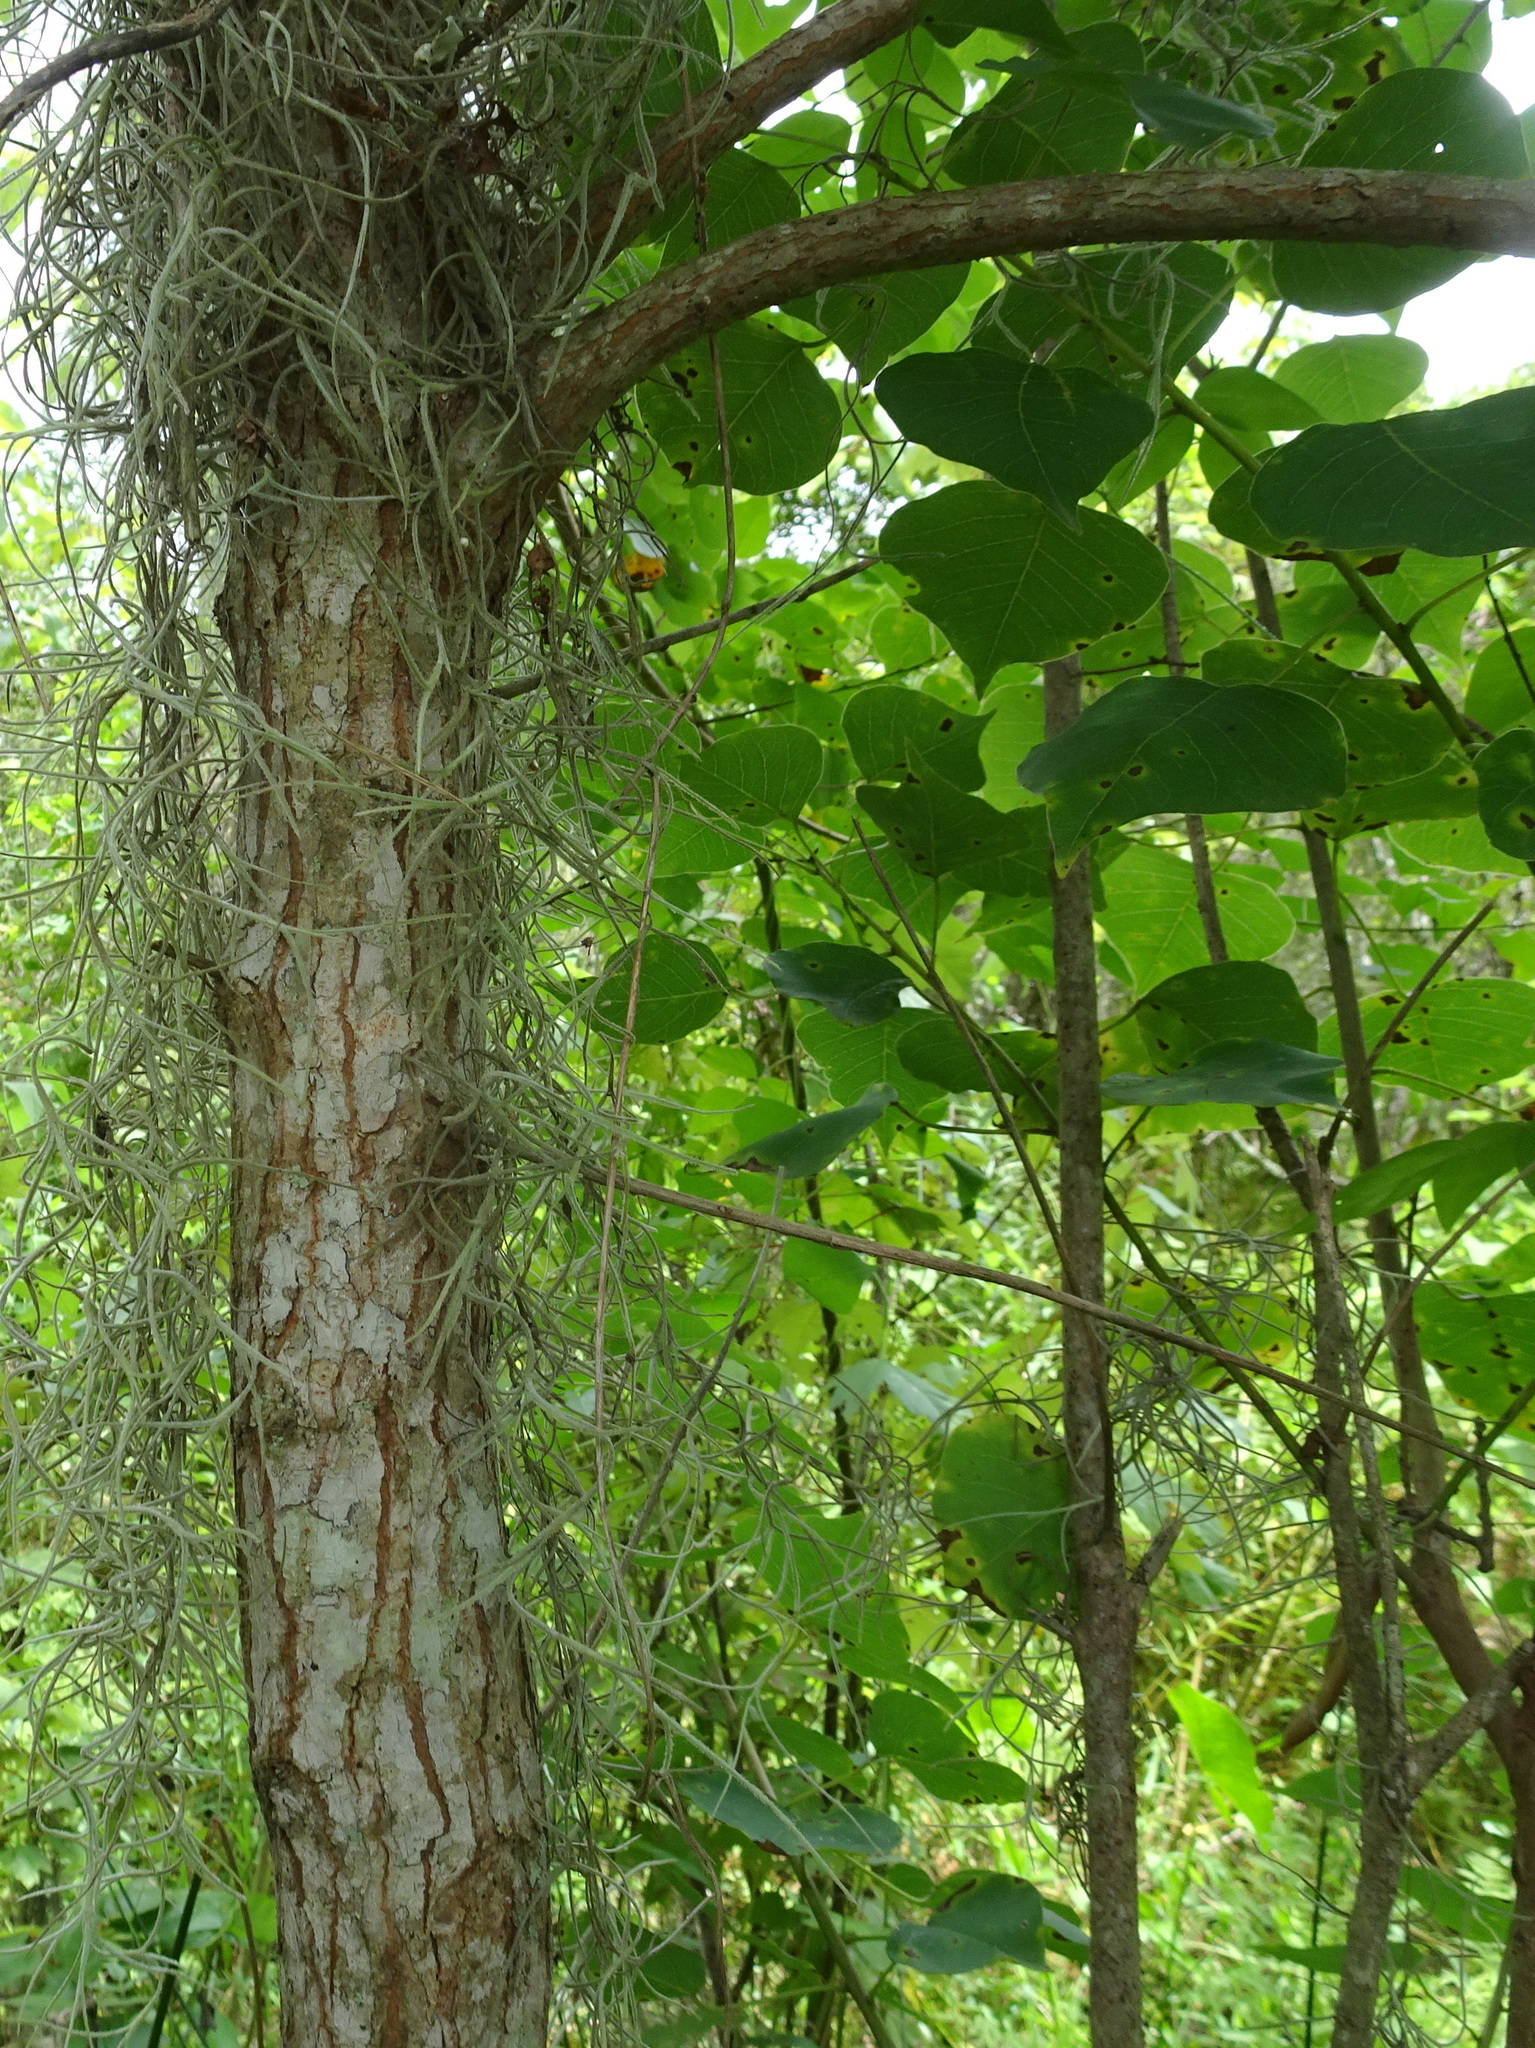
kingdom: Plantae
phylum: Tracheophyta
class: Magnoliopsida
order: Malpighiales
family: Euphorbiaceae
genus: Triadica
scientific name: Triadica sebifera
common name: Chinese tallow
